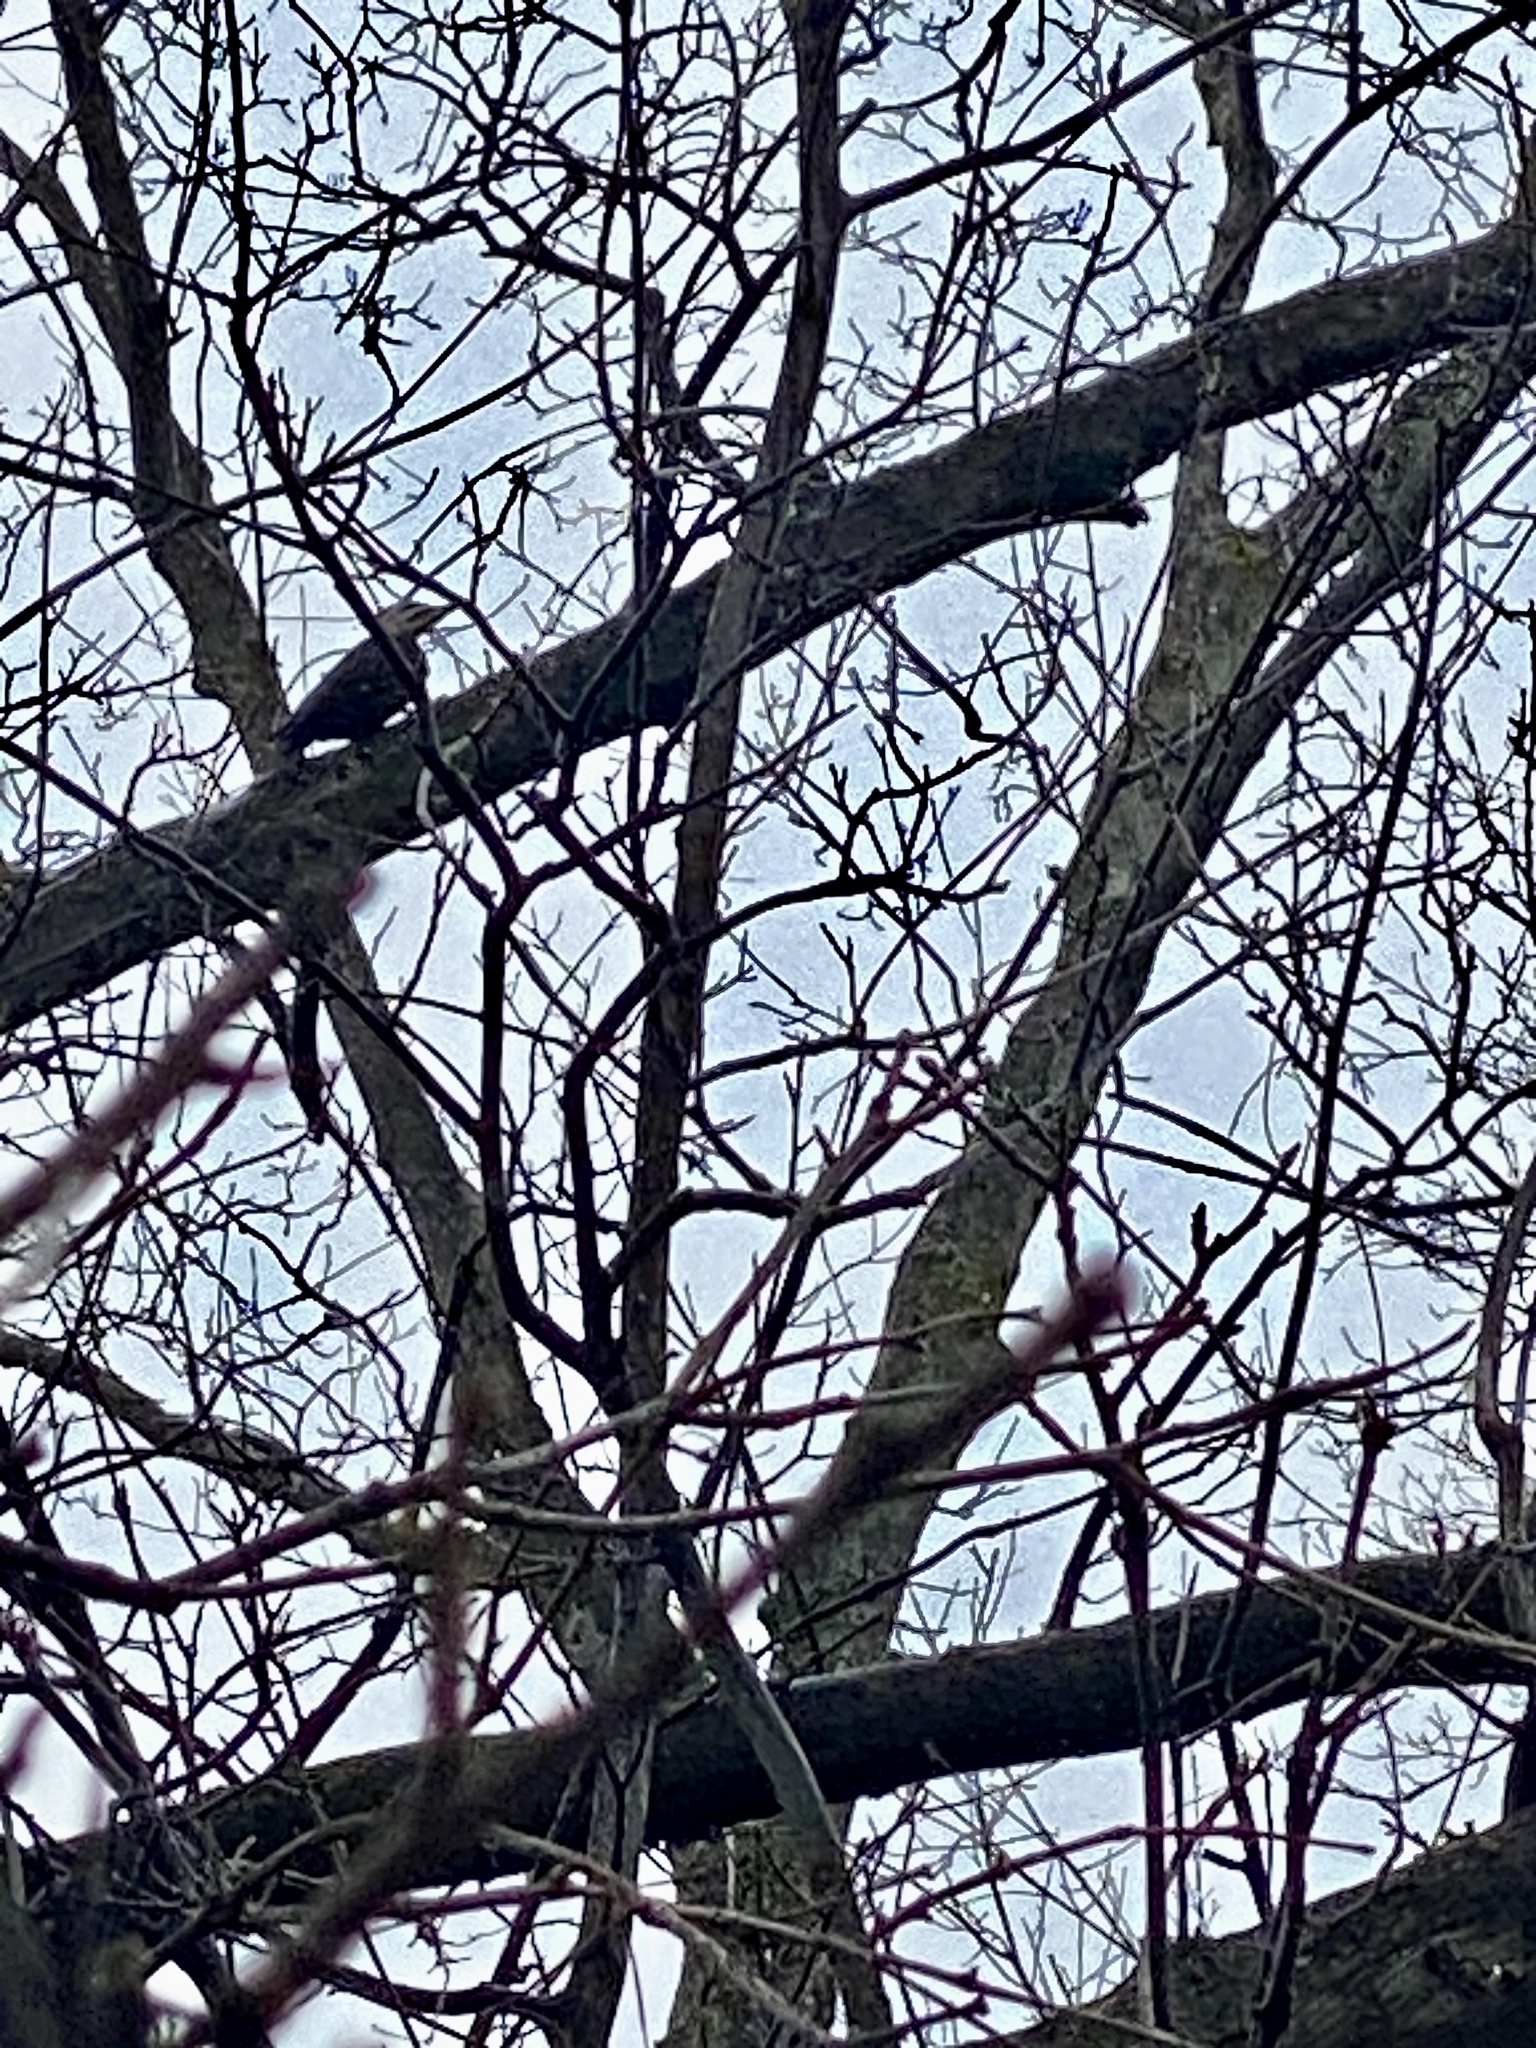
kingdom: Animalia
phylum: Chordata
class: Aves
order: Piciformes
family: Picidae
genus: Dryocopus
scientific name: Dryocopus pileatus
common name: Pileated woodpecker
